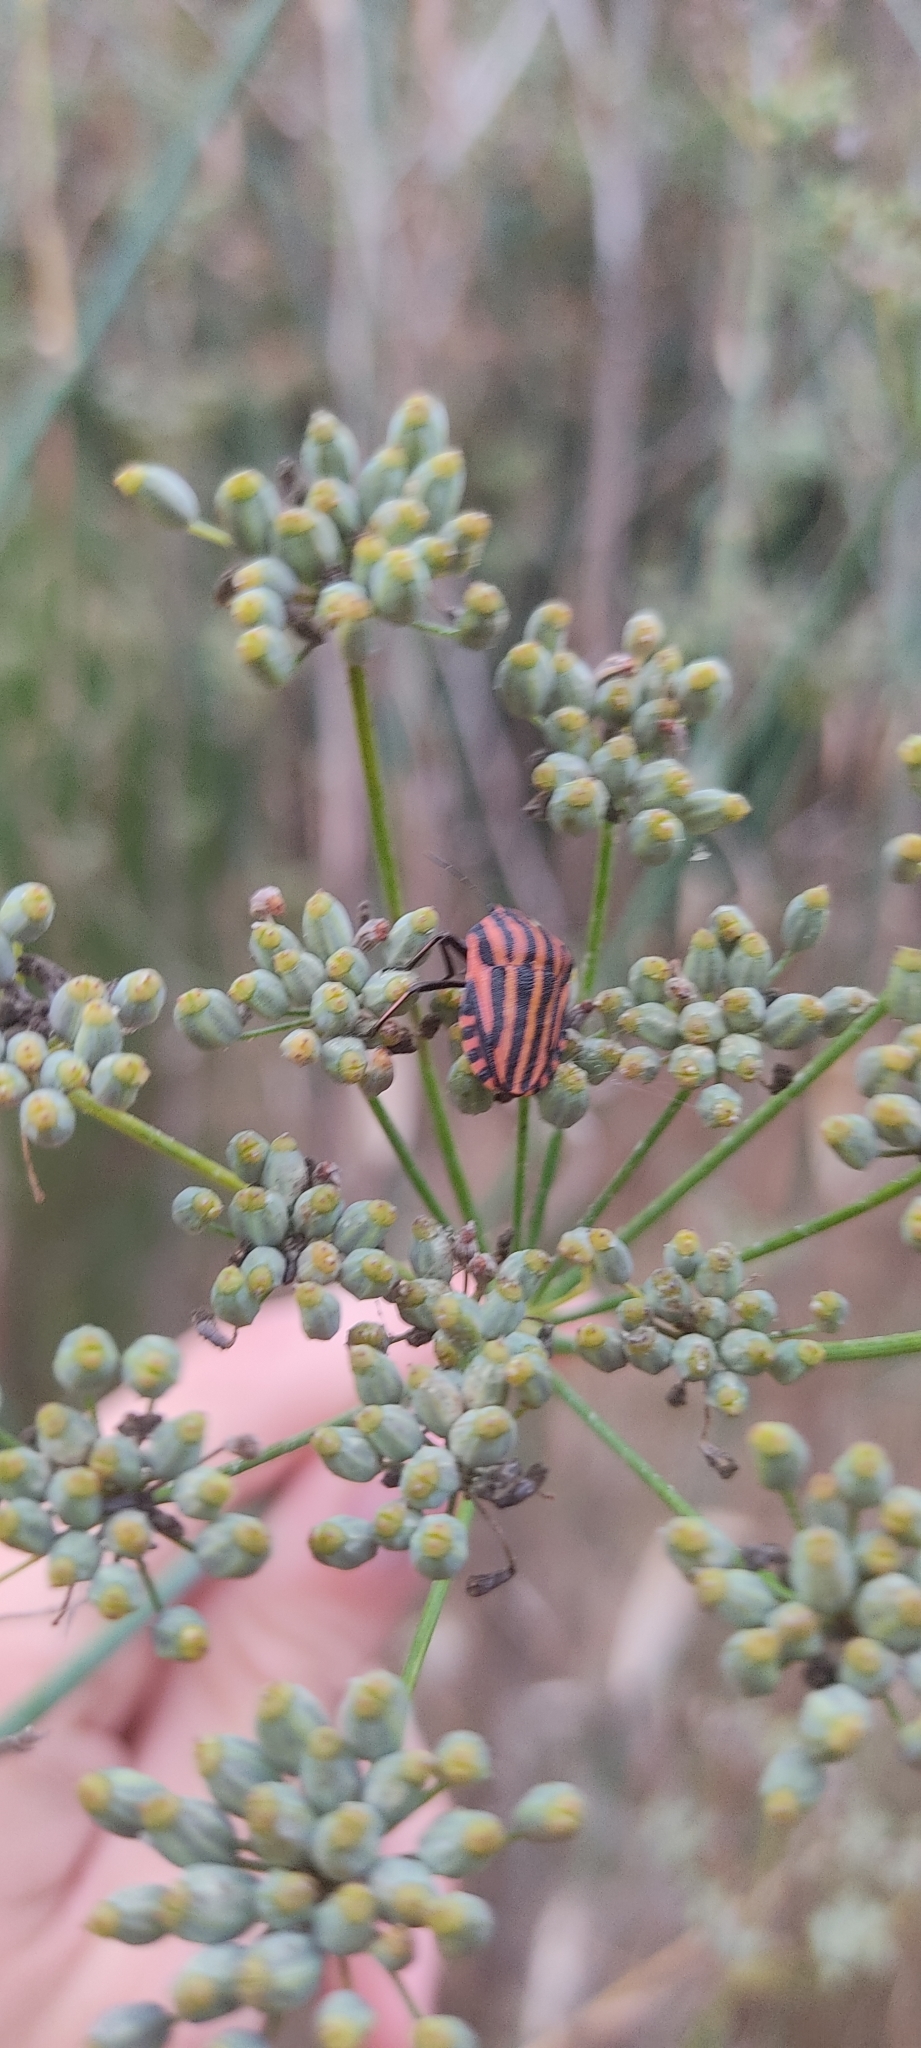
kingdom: Animalia
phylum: Arthropoda
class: Insecta
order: Hemiptera
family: Pentatomidae
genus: Graphosoma
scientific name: Graphosoma italicum
